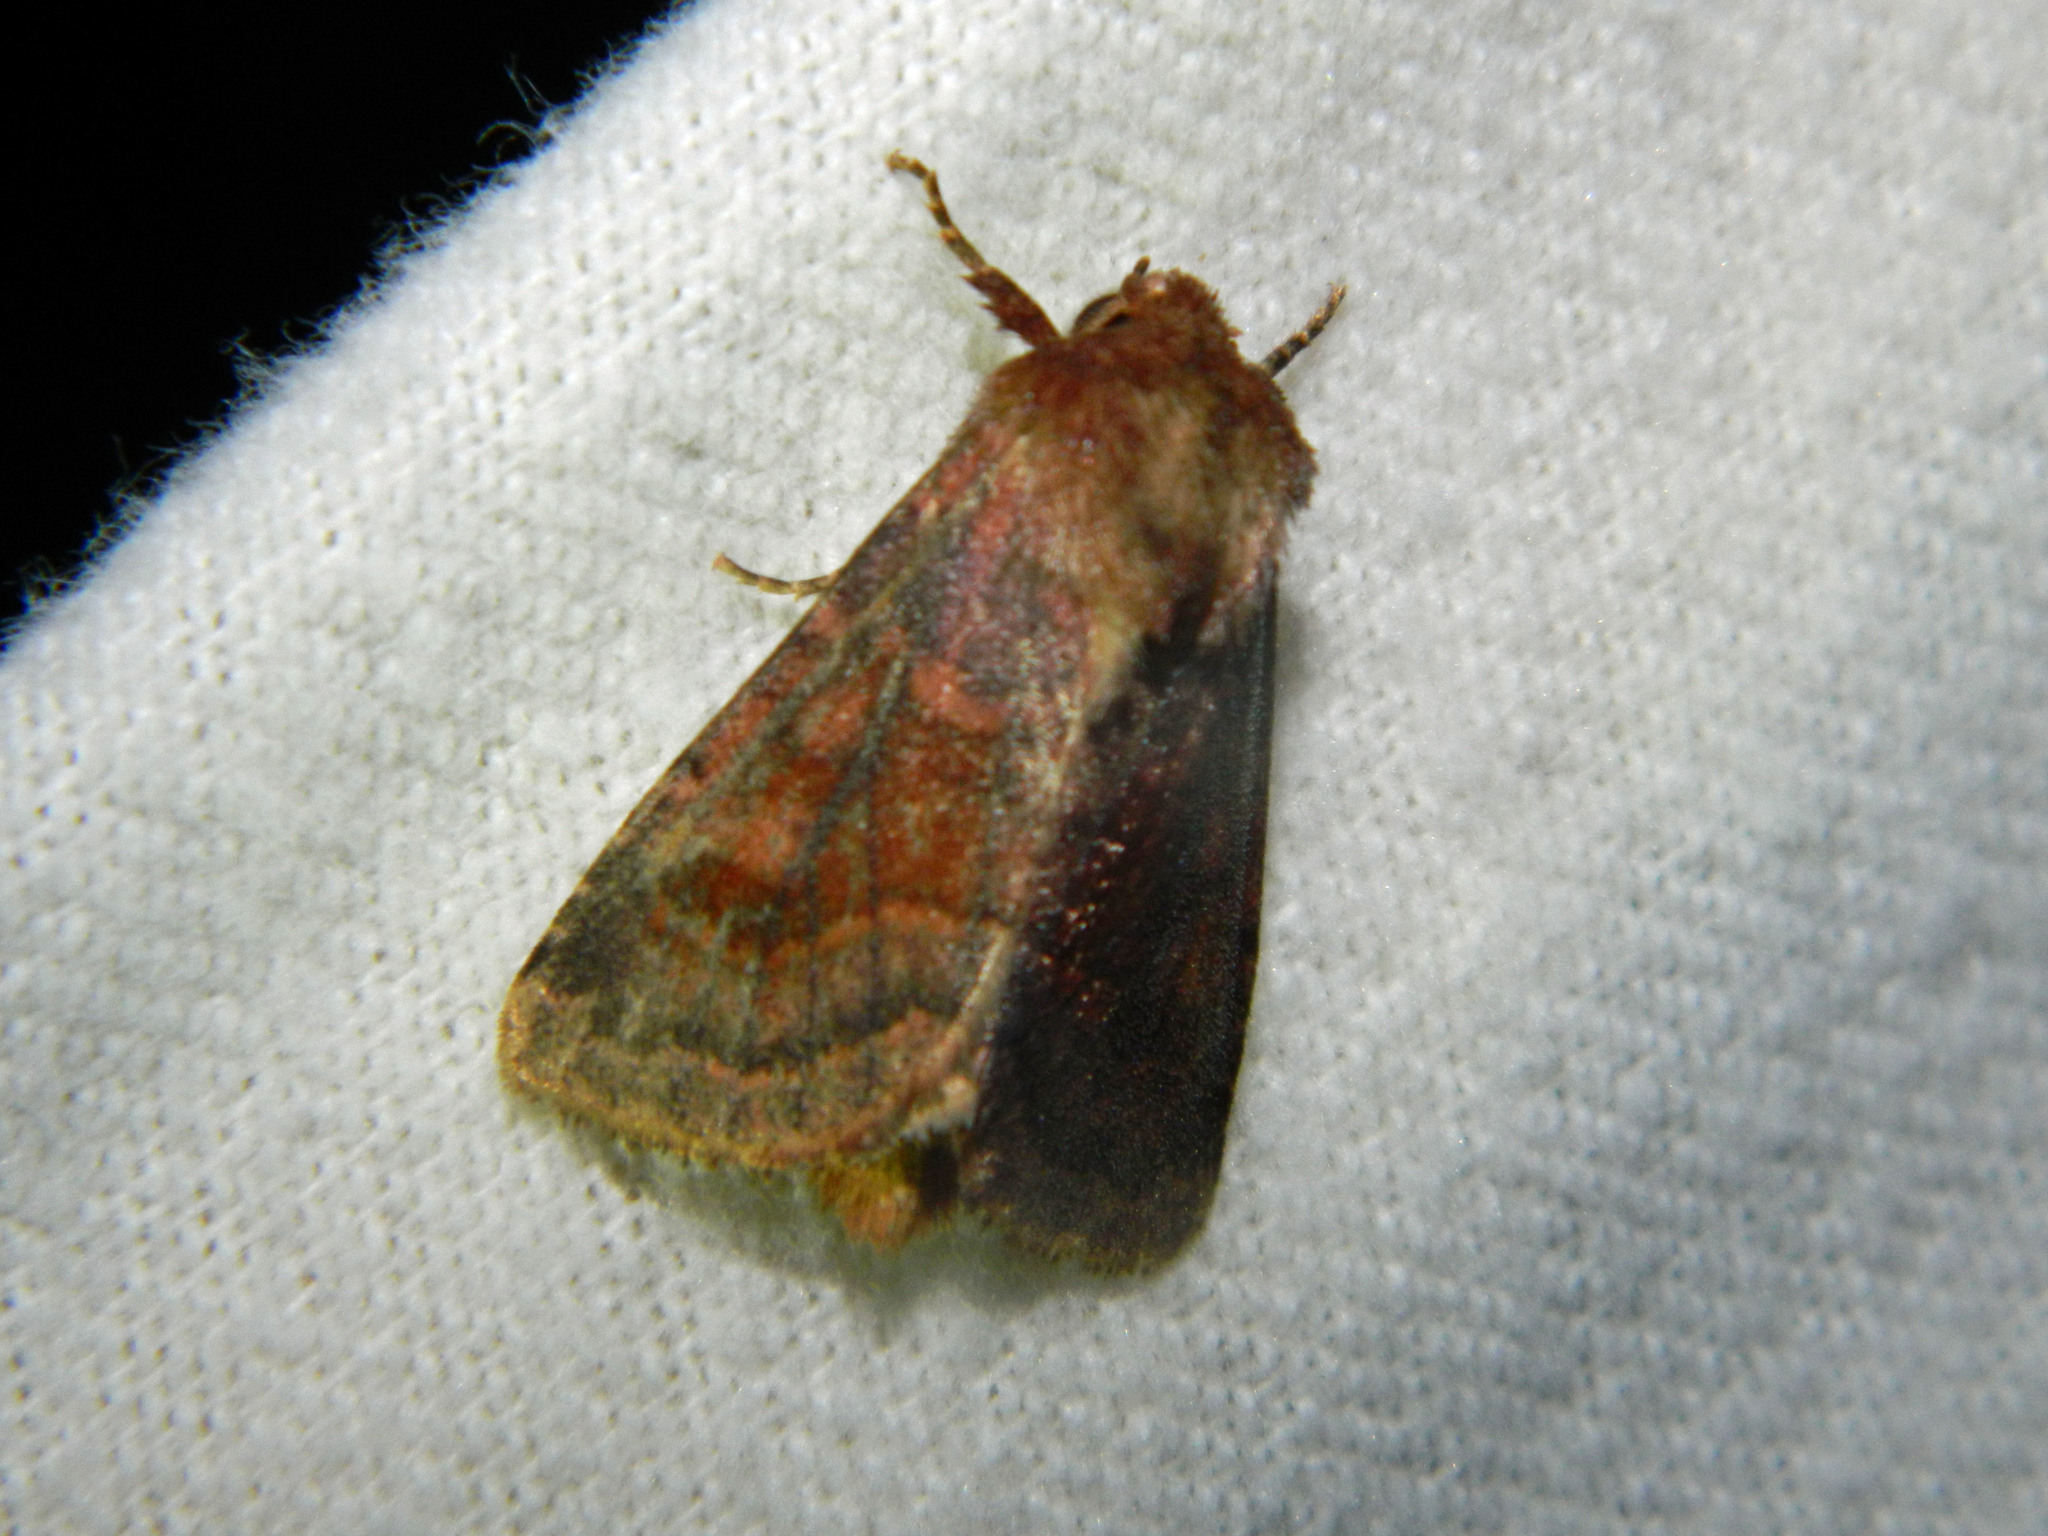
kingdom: Animalia
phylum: Arthropoda
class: Insecta
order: Lepidoptera
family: Noctuidae
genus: Nephelodes
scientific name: Nephelodes minians
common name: Bronzed cutworm
